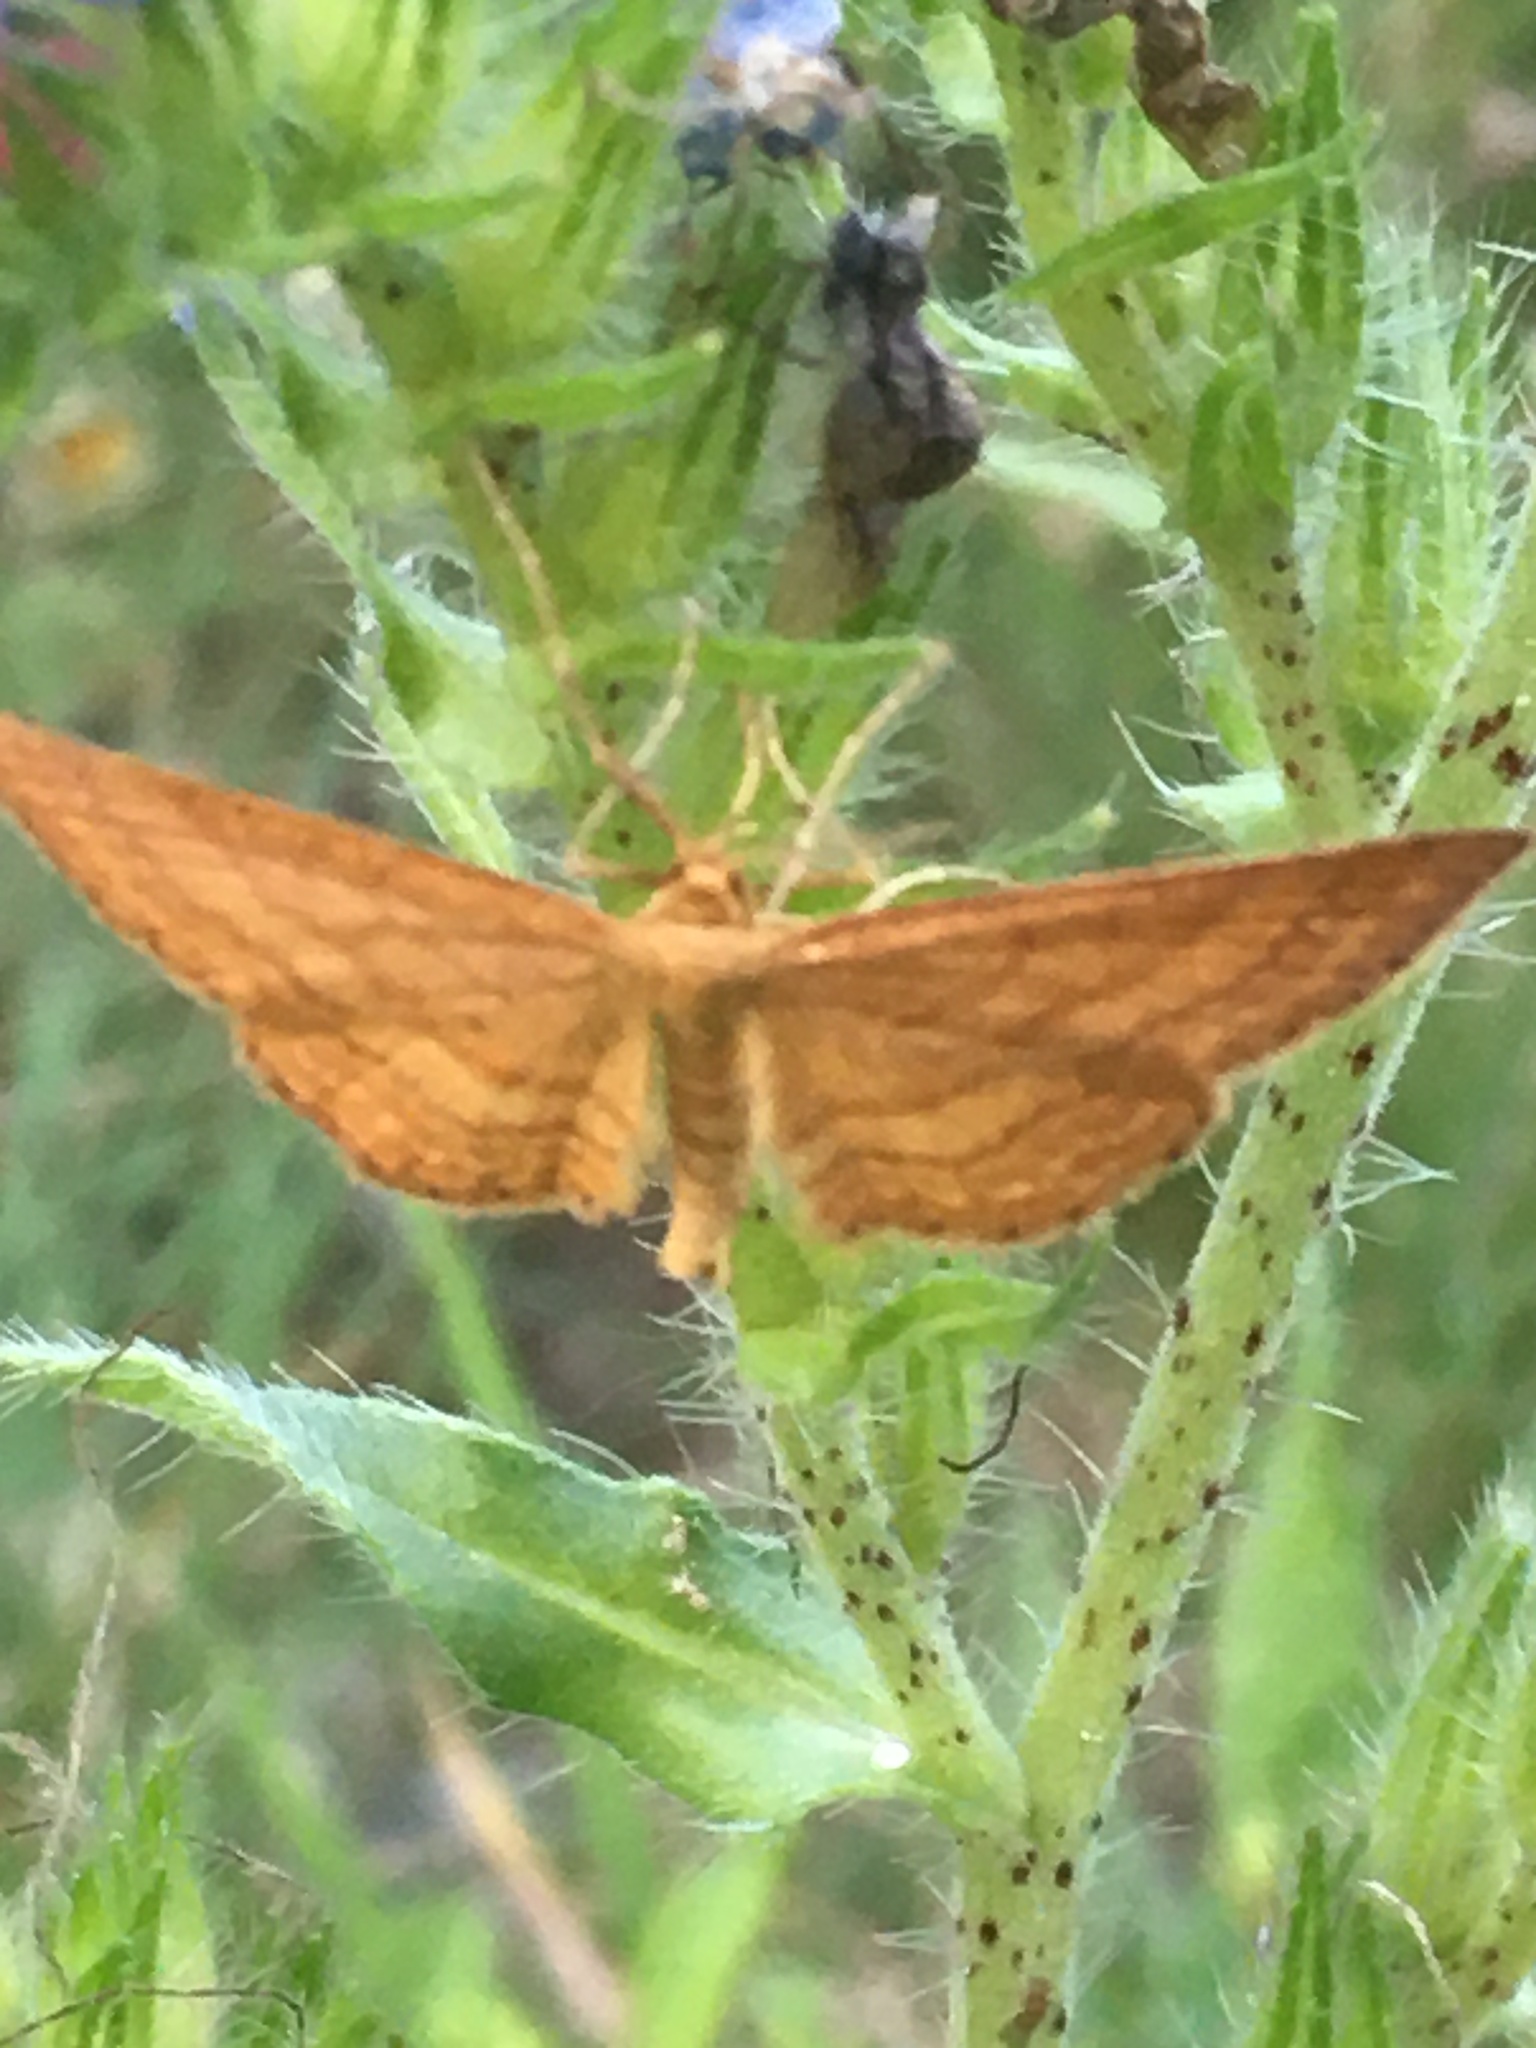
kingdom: Animalia
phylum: Arthropoda
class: Insecta
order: Lepidoptera
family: Geometridae
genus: Idaea
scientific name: Idaea ochrata
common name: Bright wave
